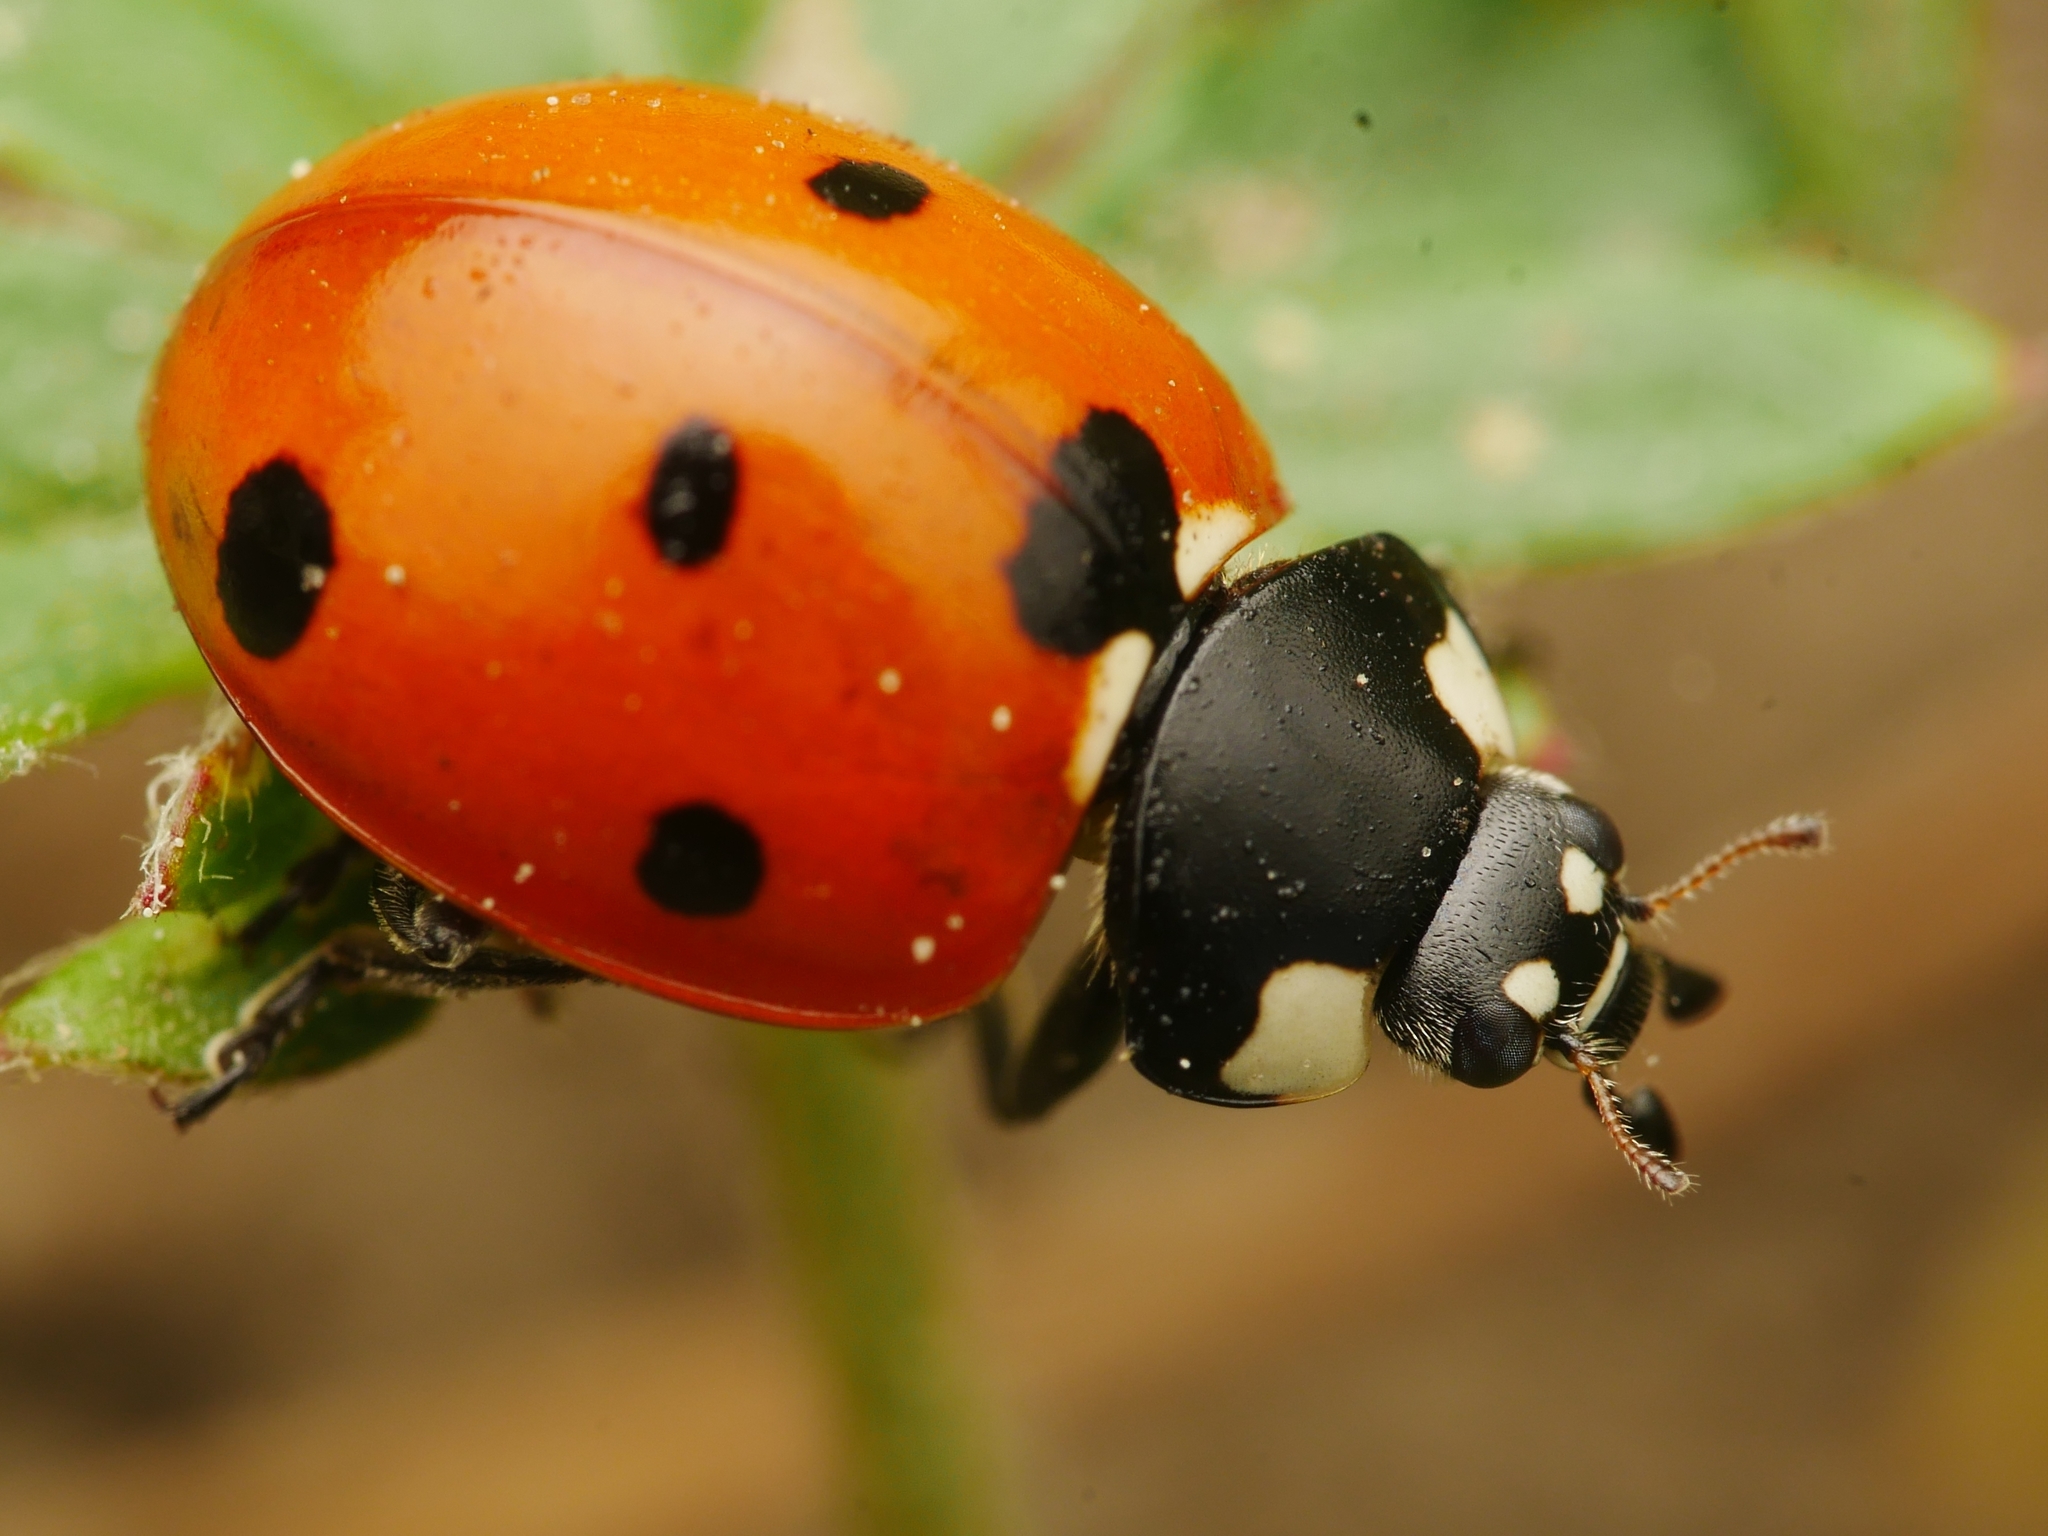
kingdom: Animalia
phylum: Arthropoda
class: Insecta
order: Coleoptera
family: Coccinellidae
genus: Coccinella
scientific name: Coccinella septempunctata
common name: Sevenspotted lady beetle
